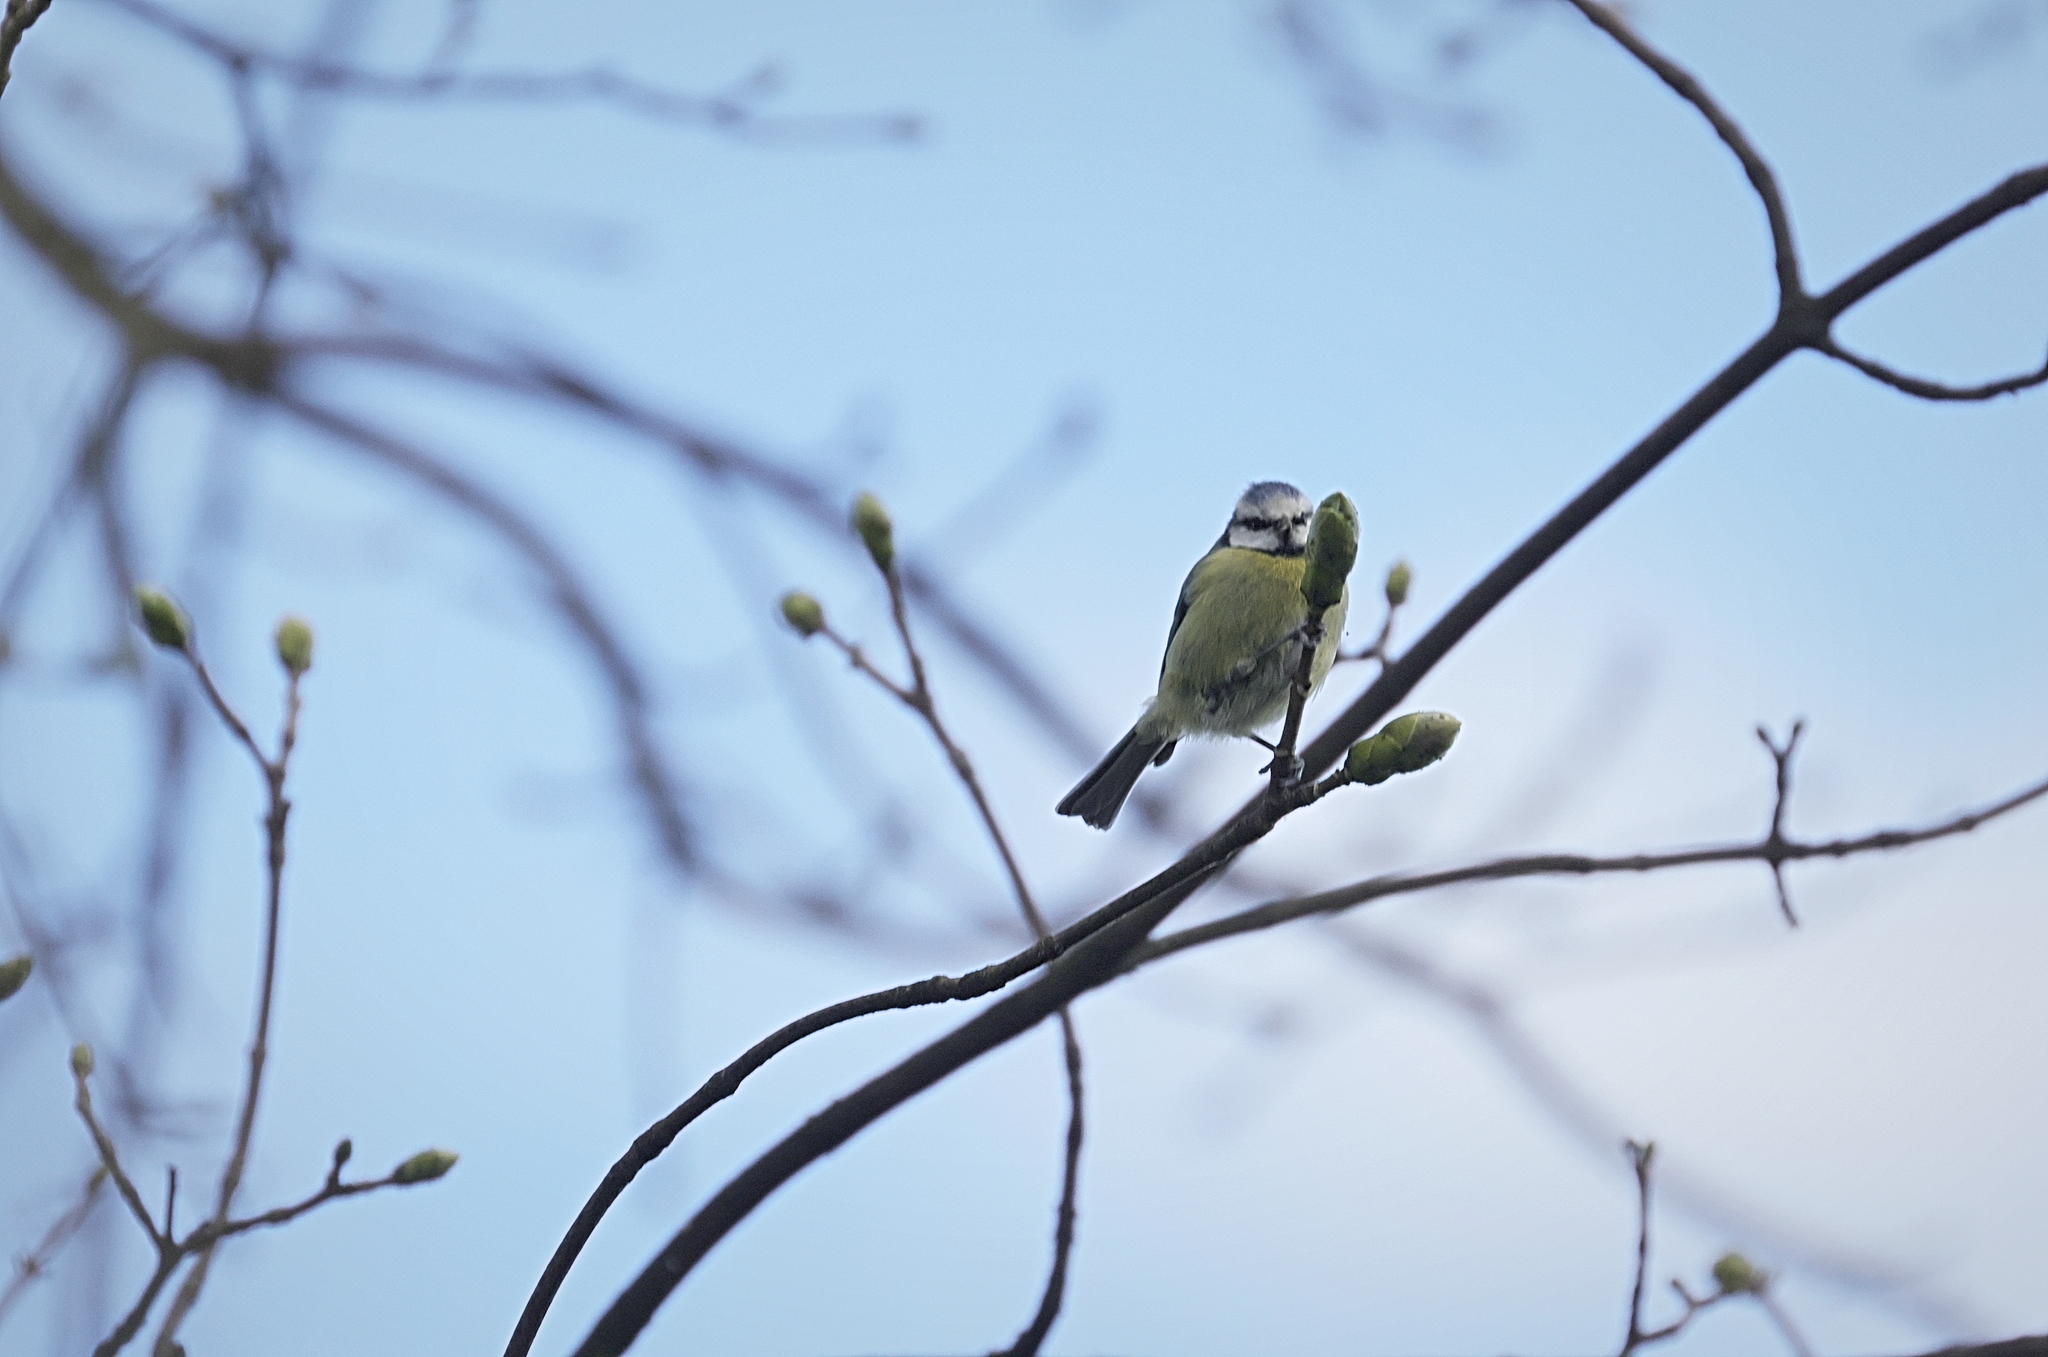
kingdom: Animalia
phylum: Chordata
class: Aves
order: Passeriformes
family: Paridae
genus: Cyanistes
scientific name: Cyanistes caeruleus
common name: Eurasian blue tit
